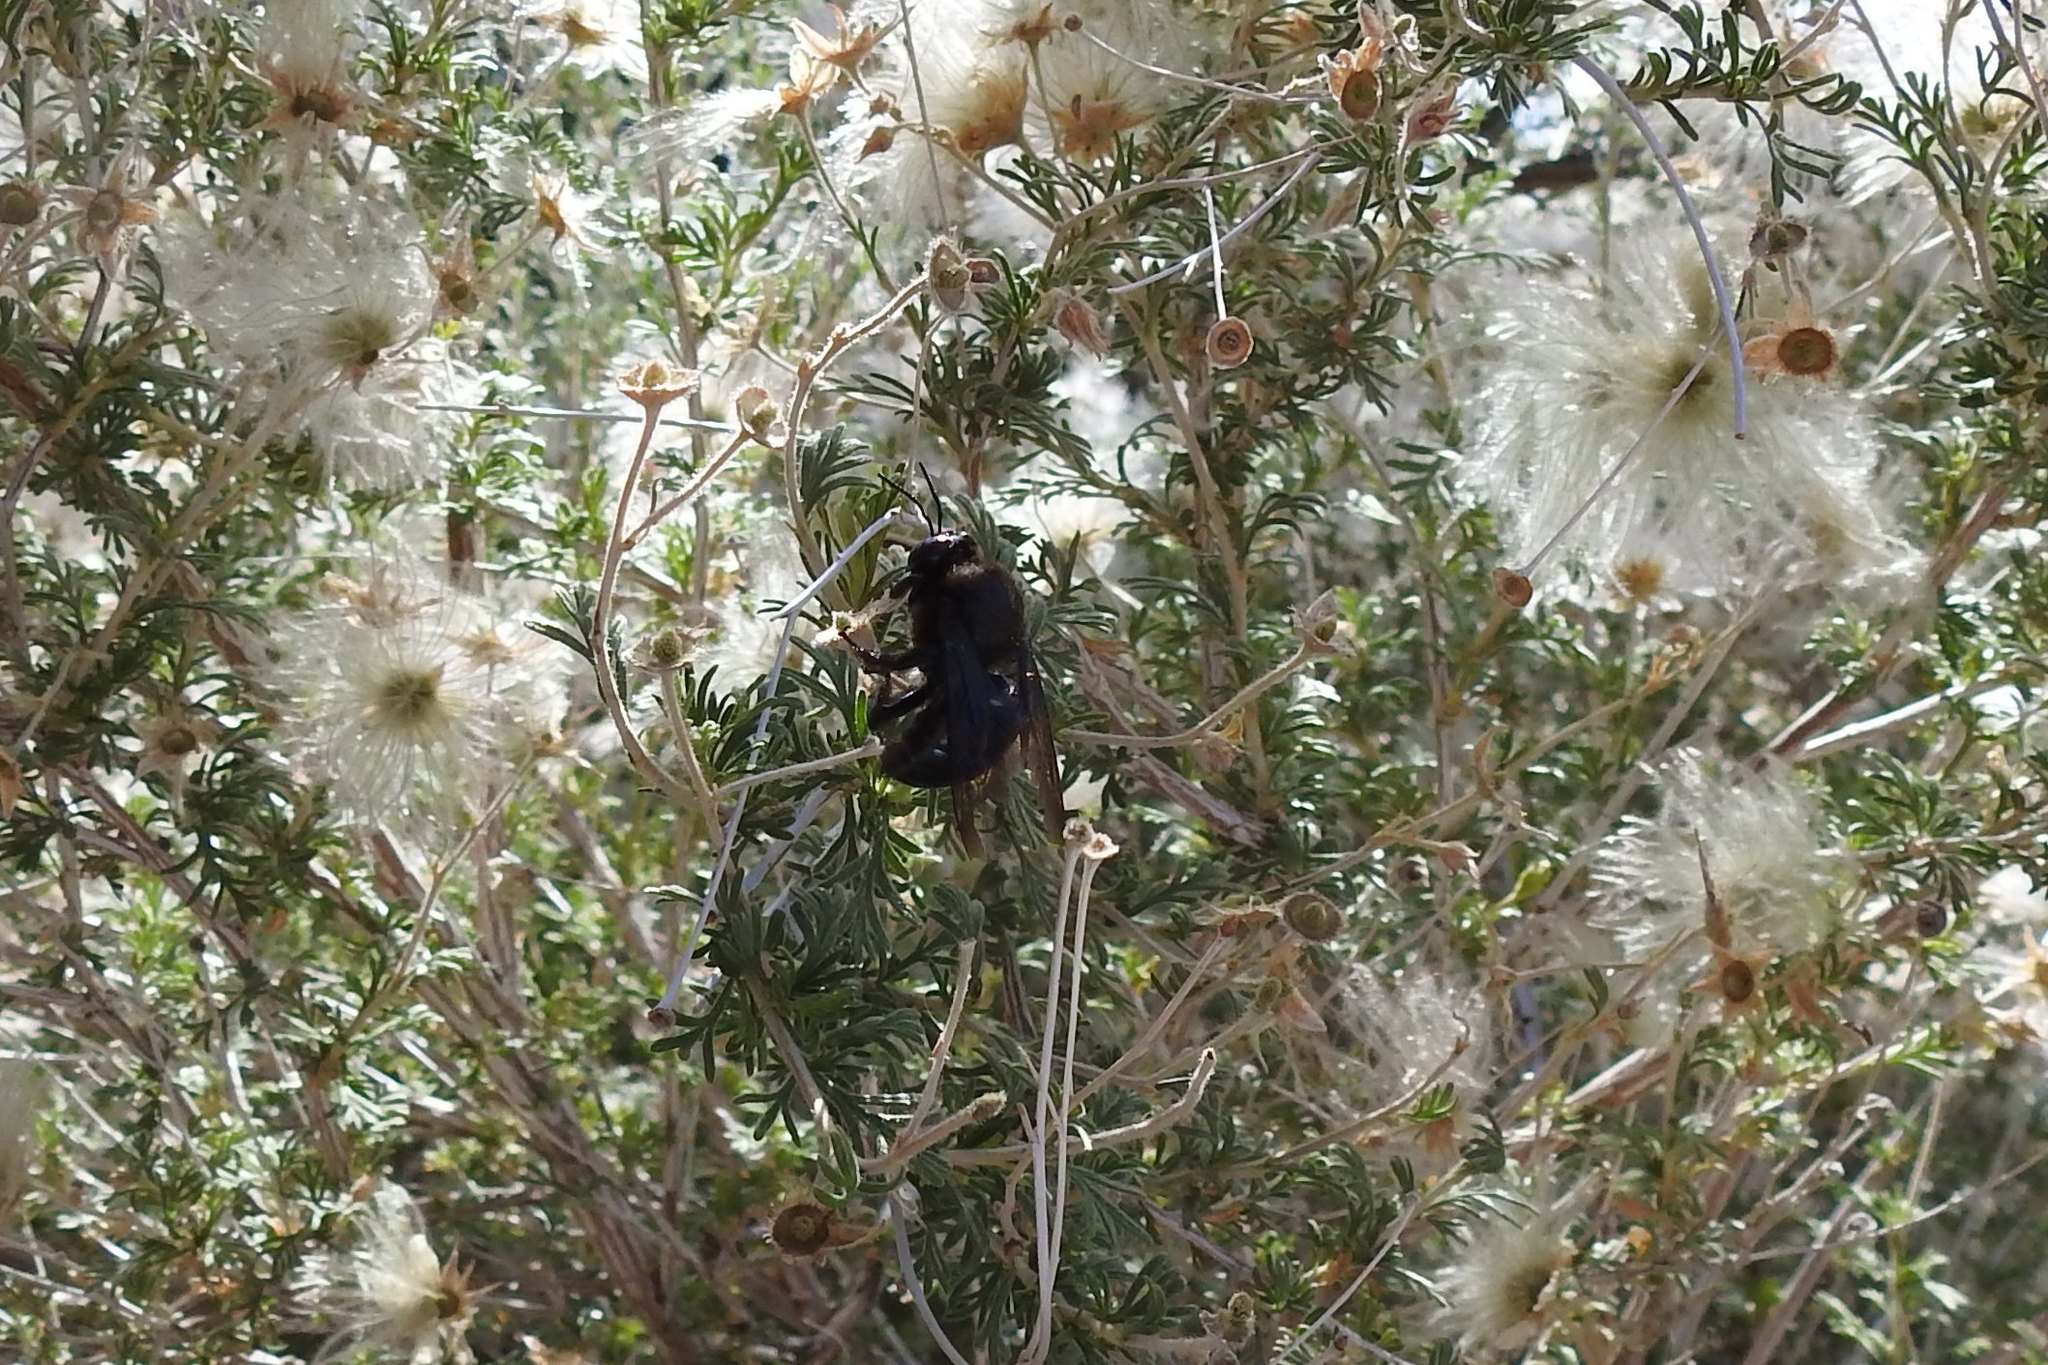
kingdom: Animalia
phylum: Arthropoda
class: Insecta
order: Hymenoptera
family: Apidae
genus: Xylocopa
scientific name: Xylocopa californica
